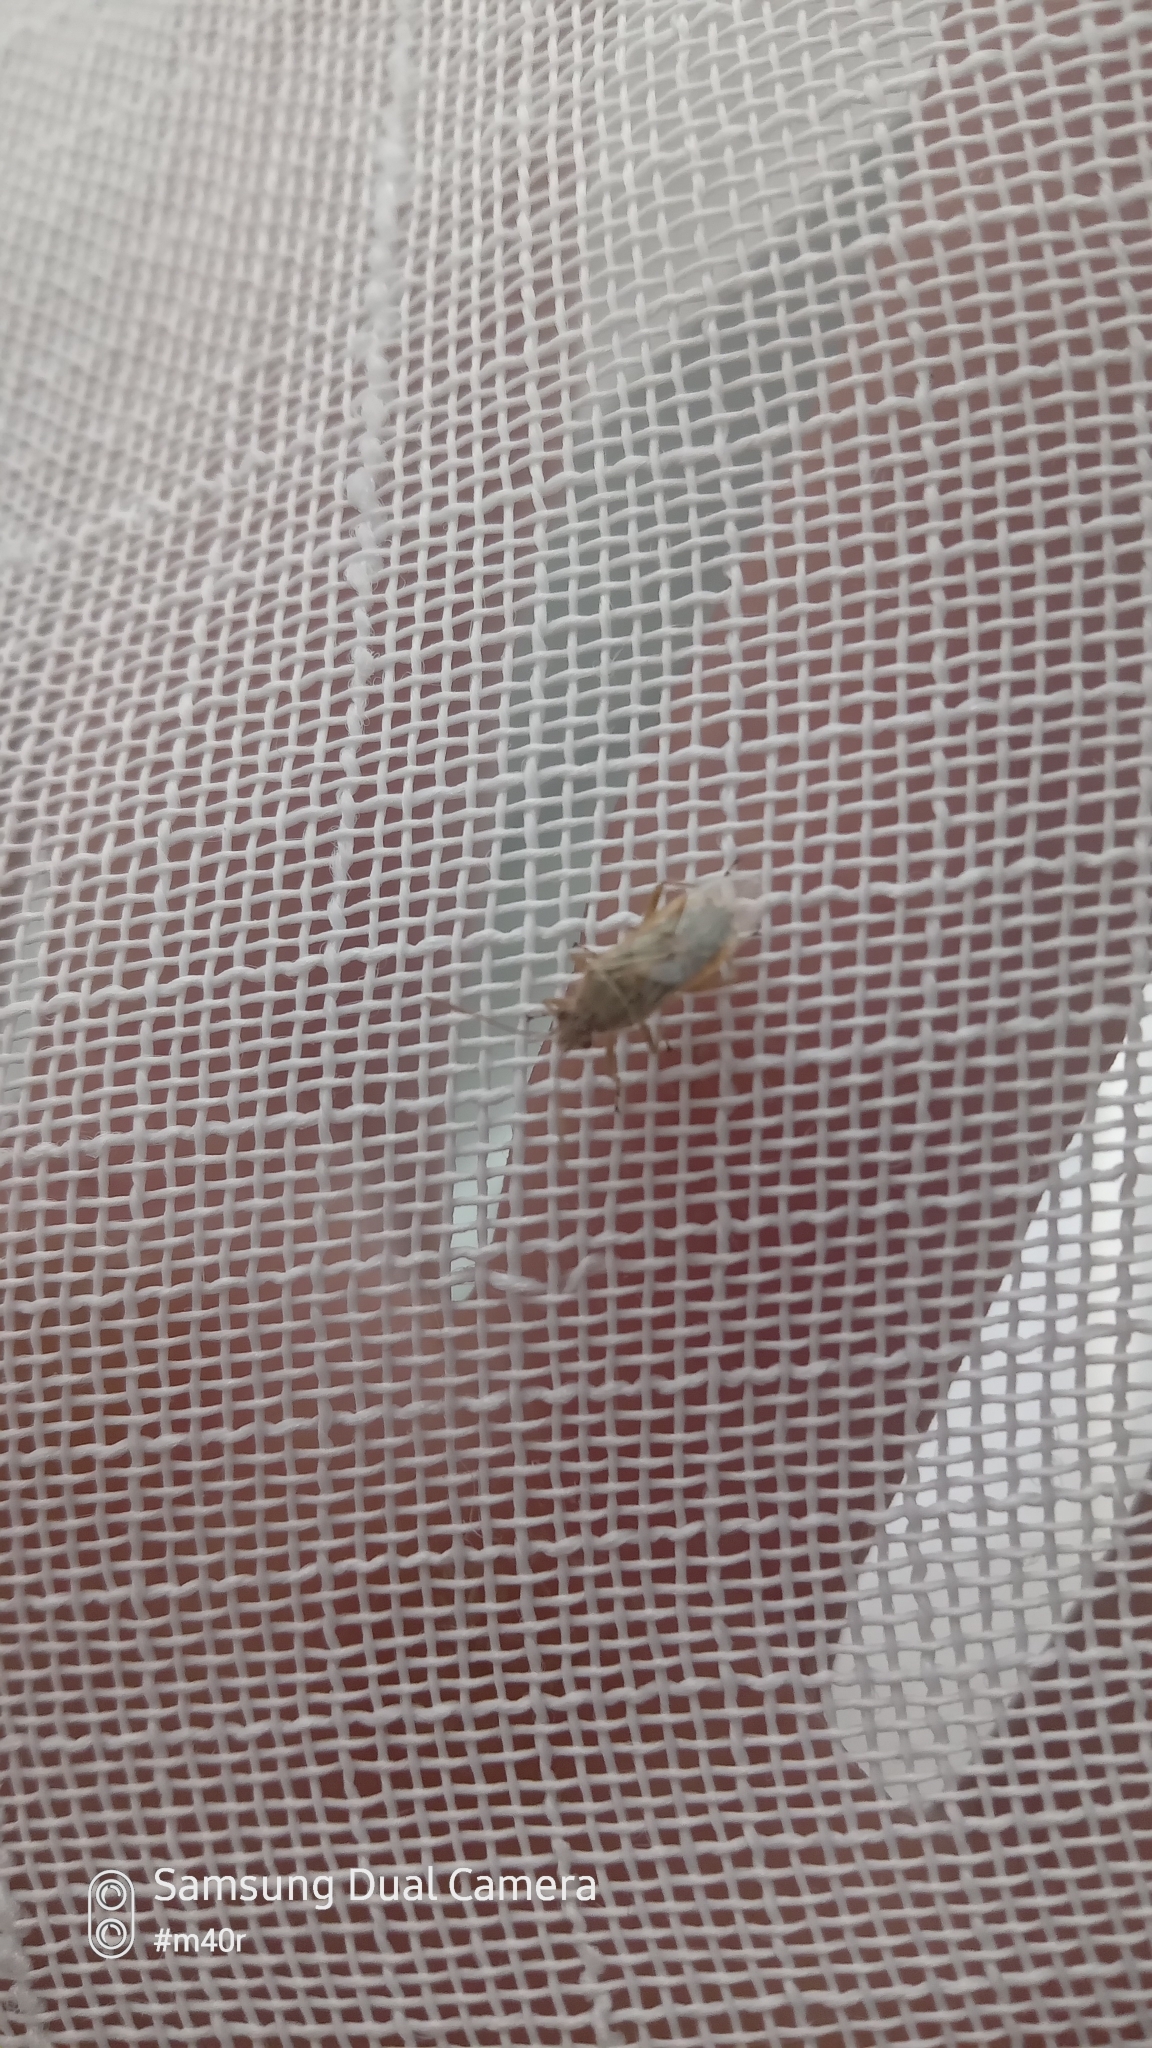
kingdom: Animalia
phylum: Arthropoda
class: Insecta
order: Hemiptera
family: Rhopalidae
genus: Liorhyssus
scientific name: Liorhyssus hyalinus
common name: Scentless plant bug
